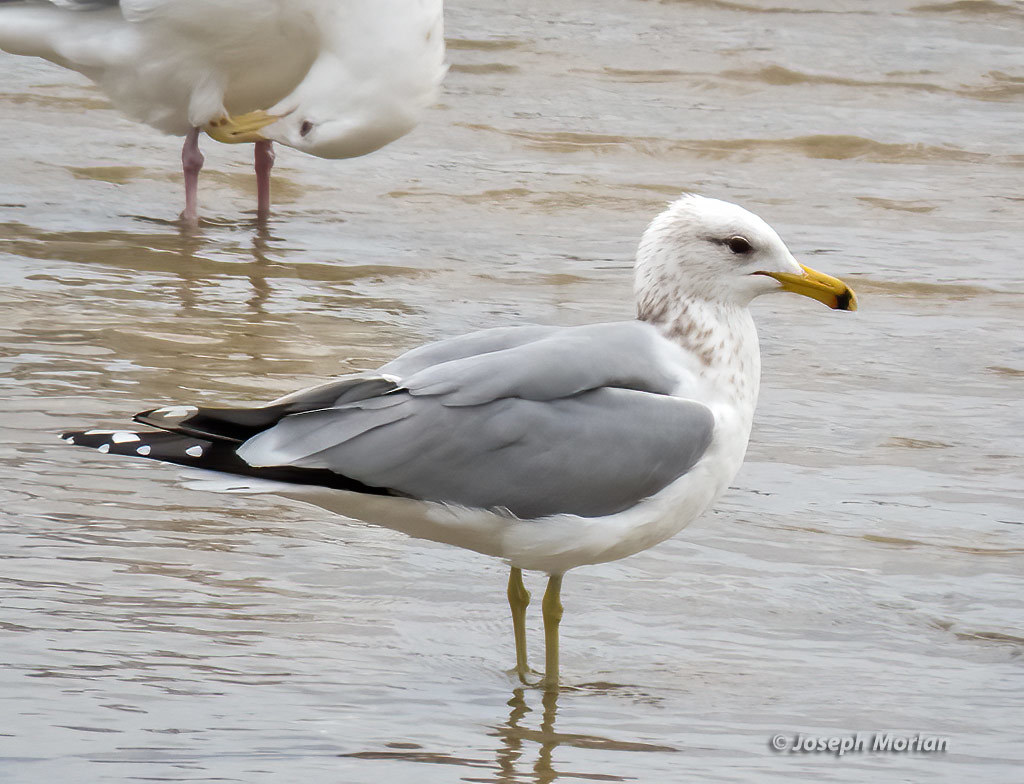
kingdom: Animalia
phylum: Chordata
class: Aves
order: Charadriiformes
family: Laridae
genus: Larus
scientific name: Larus californicus
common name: California gull
